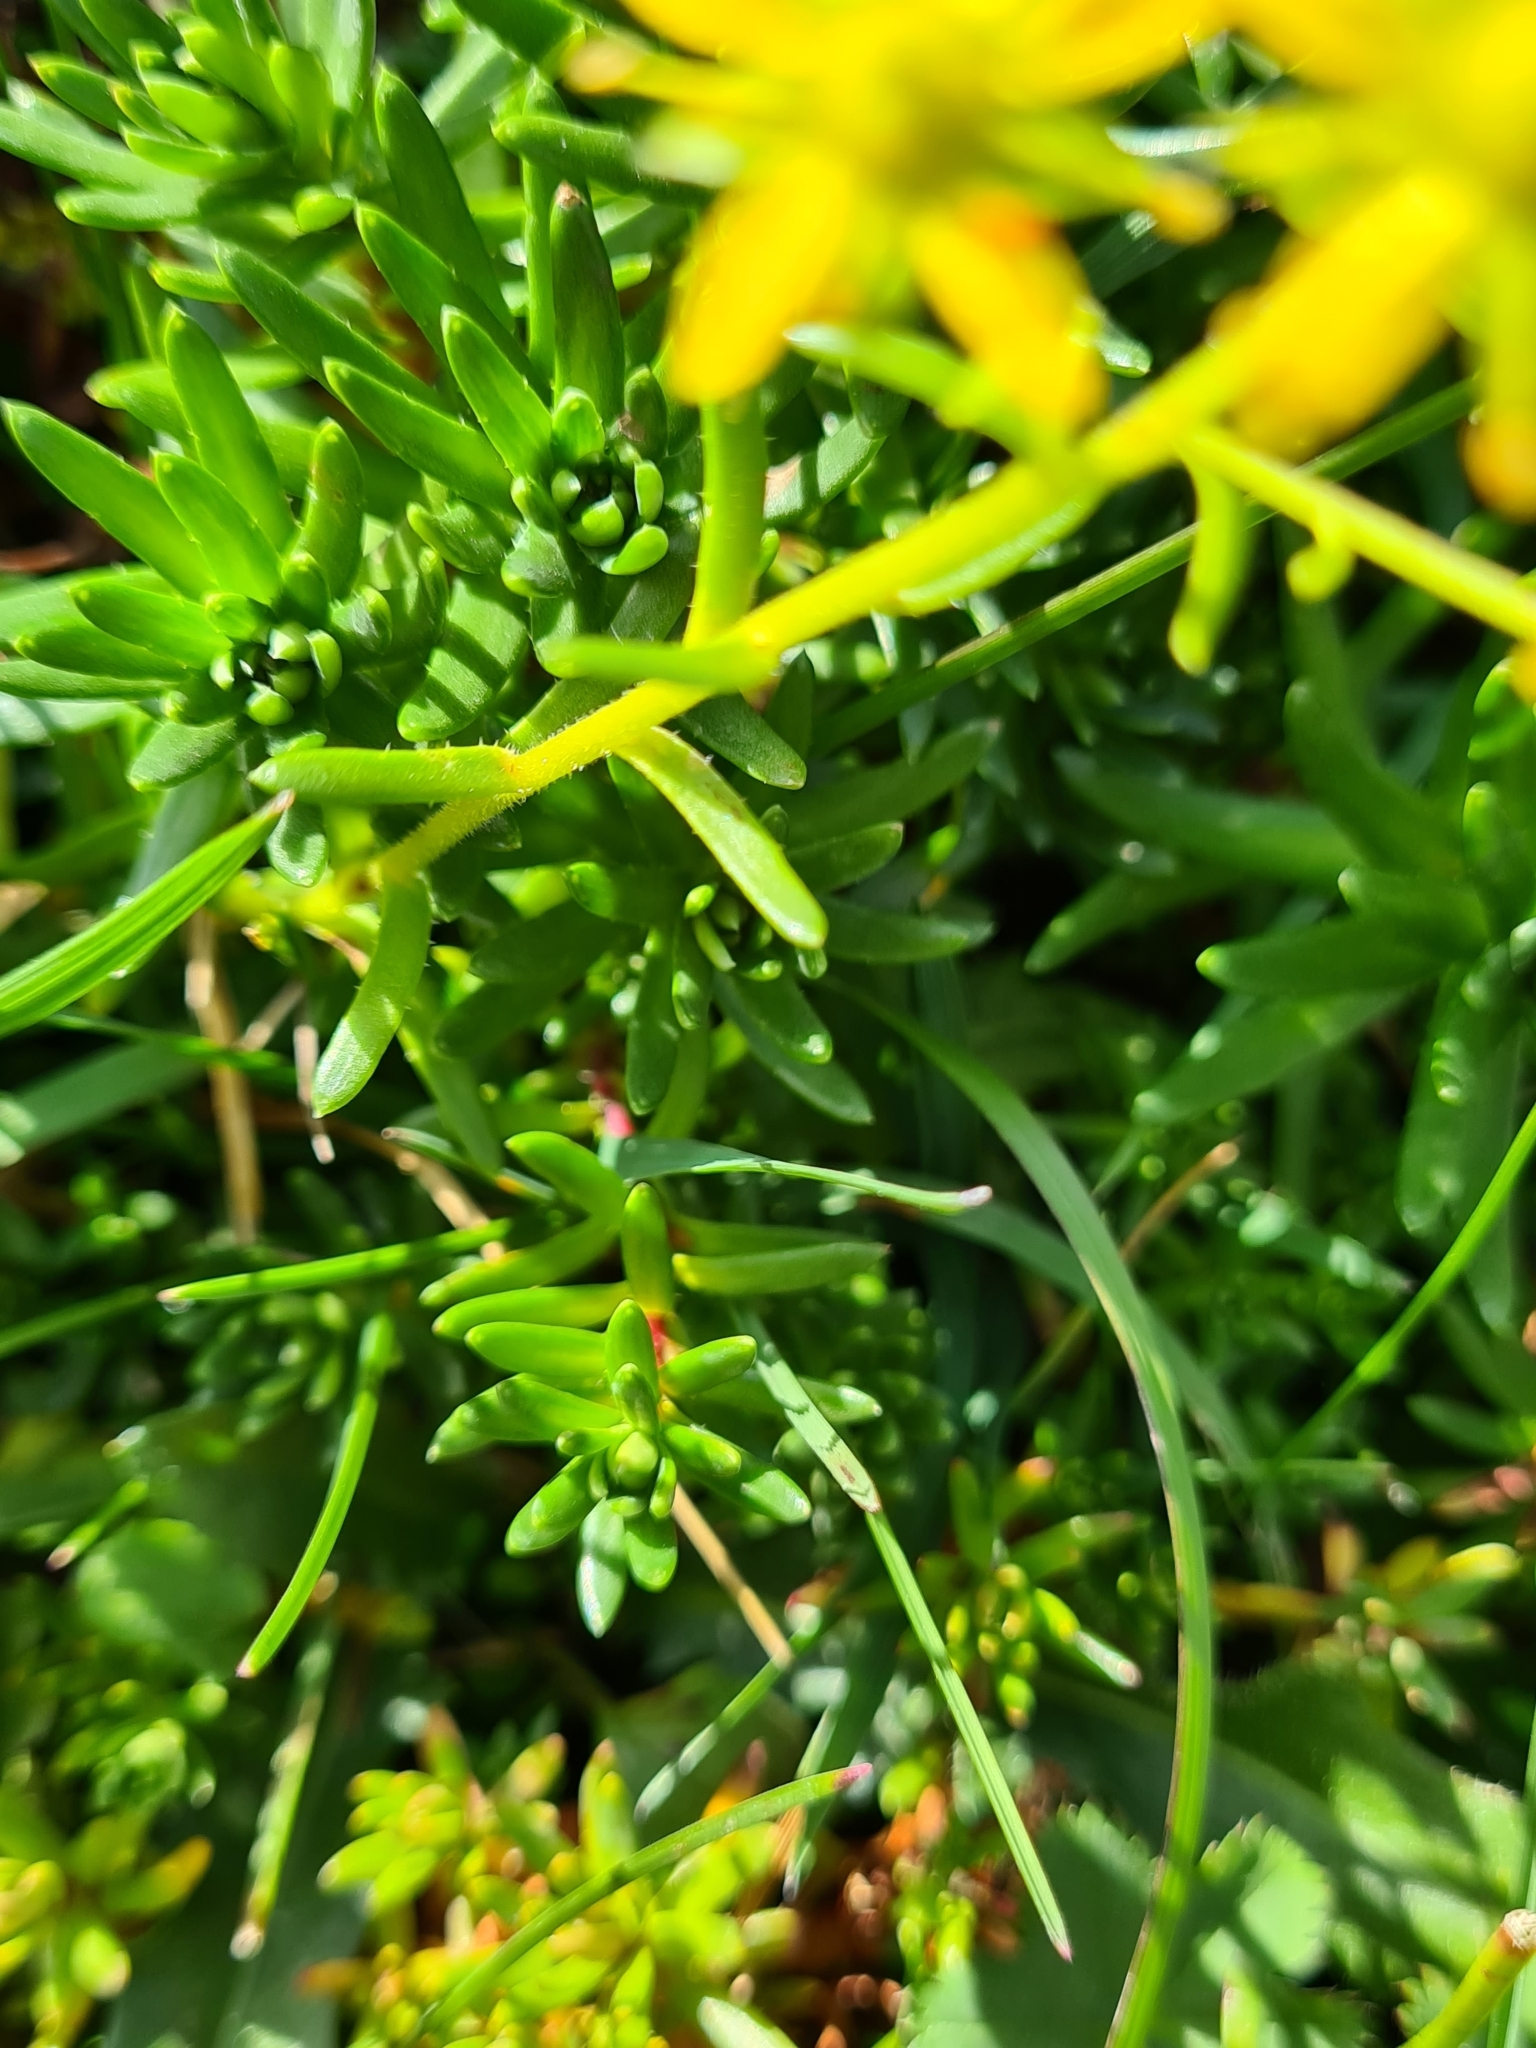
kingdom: Plantae
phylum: Tracheophyta
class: Magnoliopsida
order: Saxifragales
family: Saxifragaceae
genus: Saxifraga
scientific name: Saxifraga aizoides
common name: Yellow mountain saxifrage
